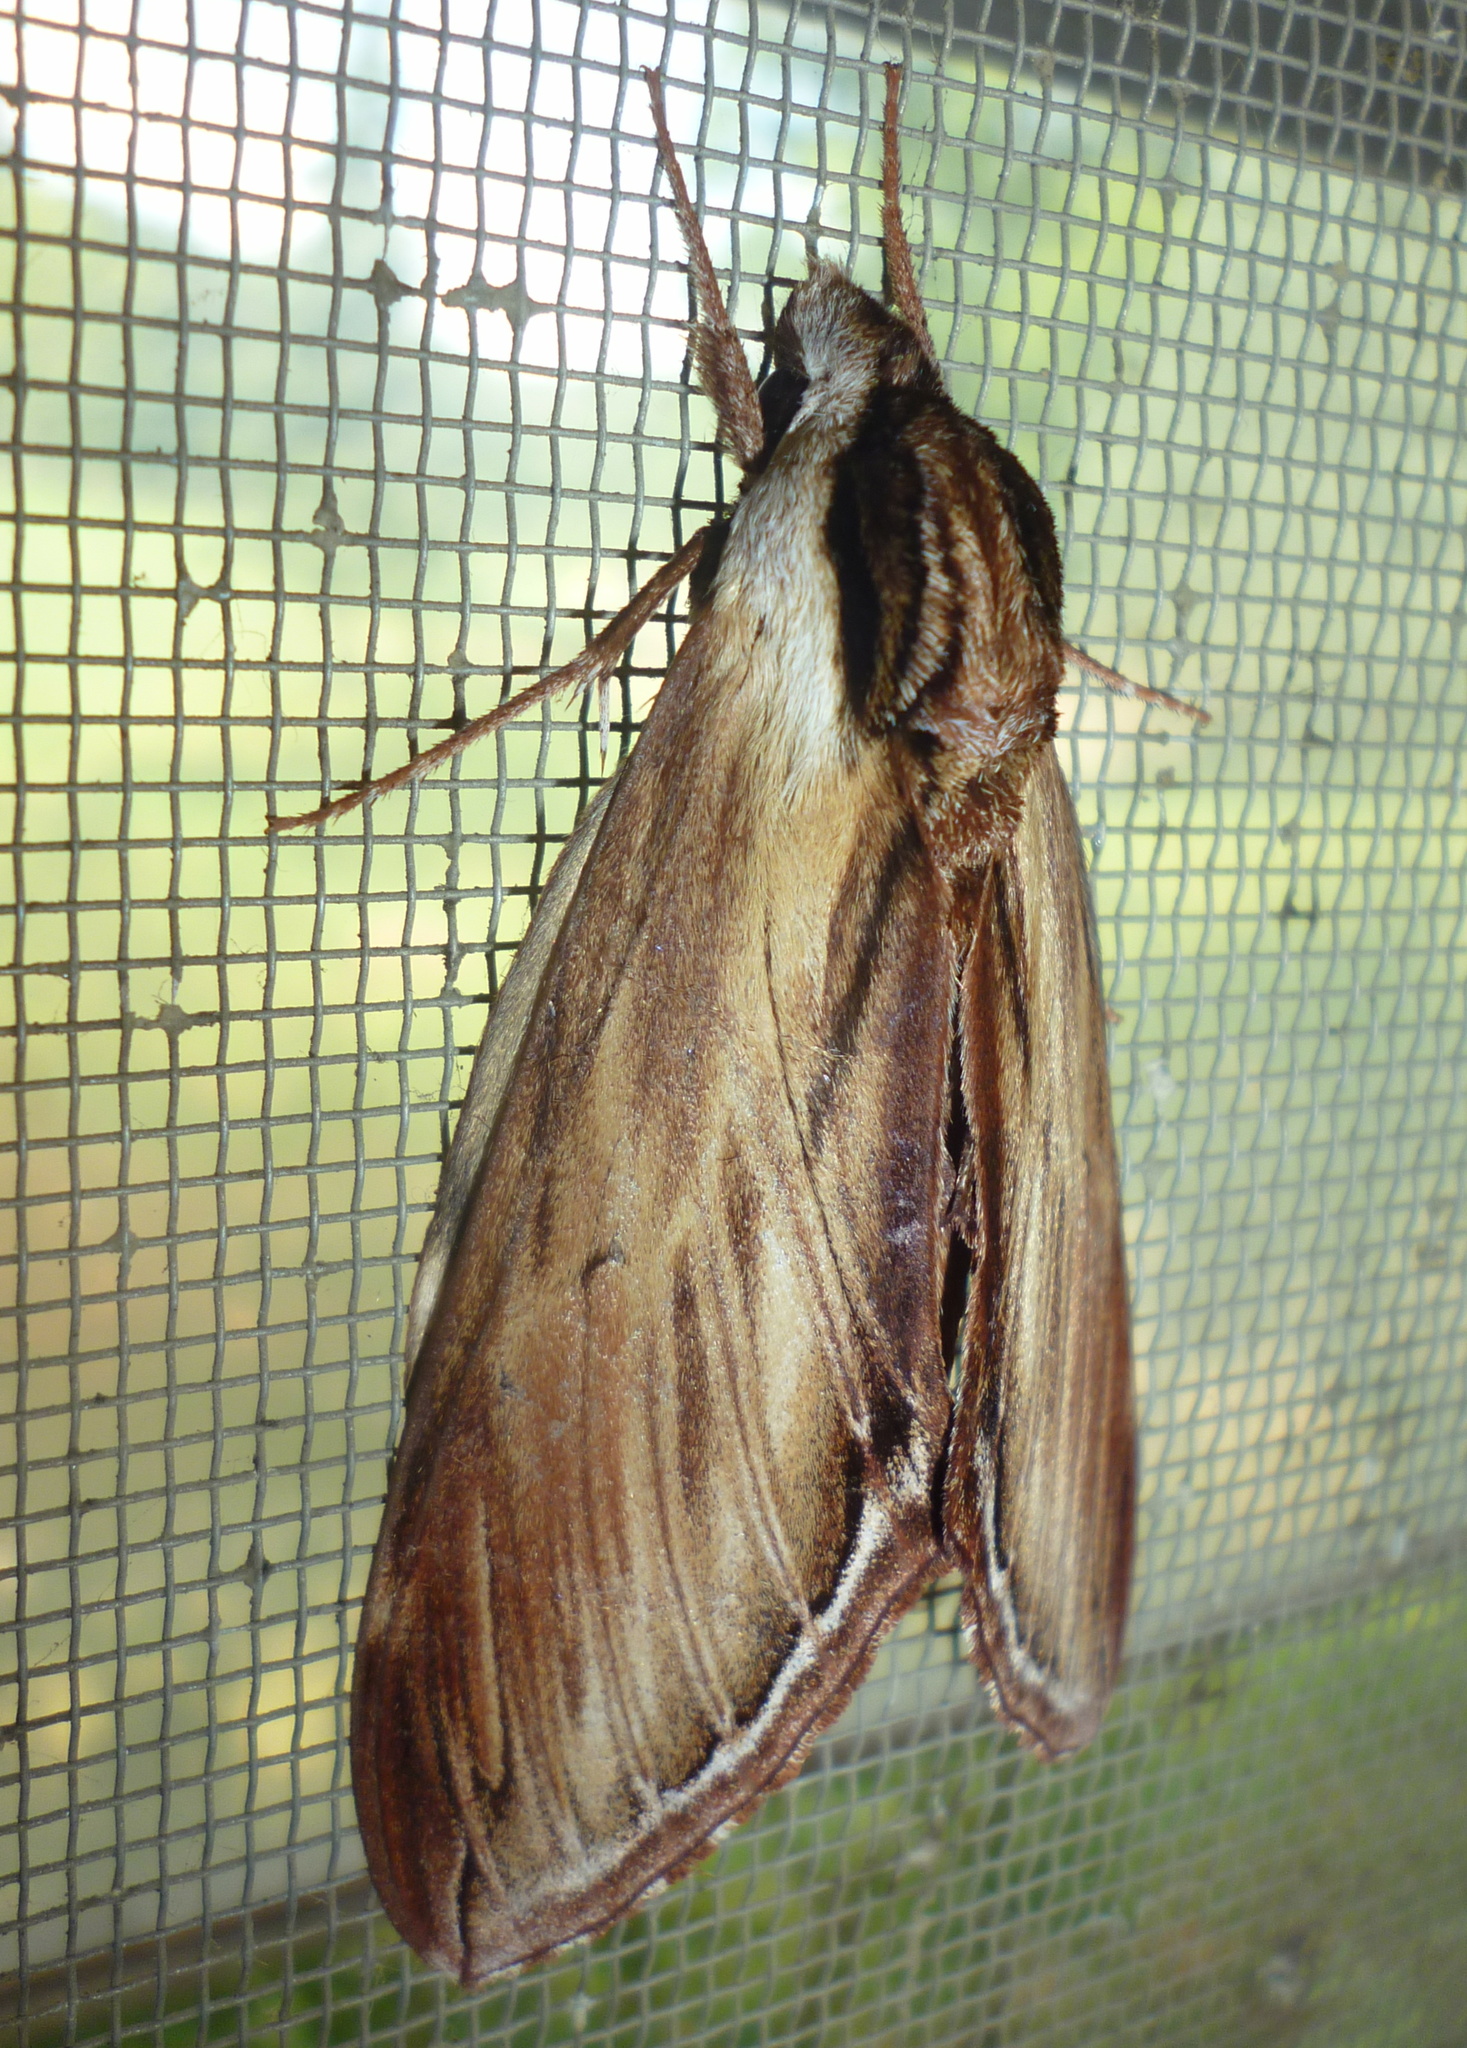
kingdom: Animalia
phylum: Arthropoda
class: Insecta
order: Lepidoptera
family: Sphingidae
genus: Sphinx
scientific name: Sphinx kalmiae
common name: Laurel sphinx
